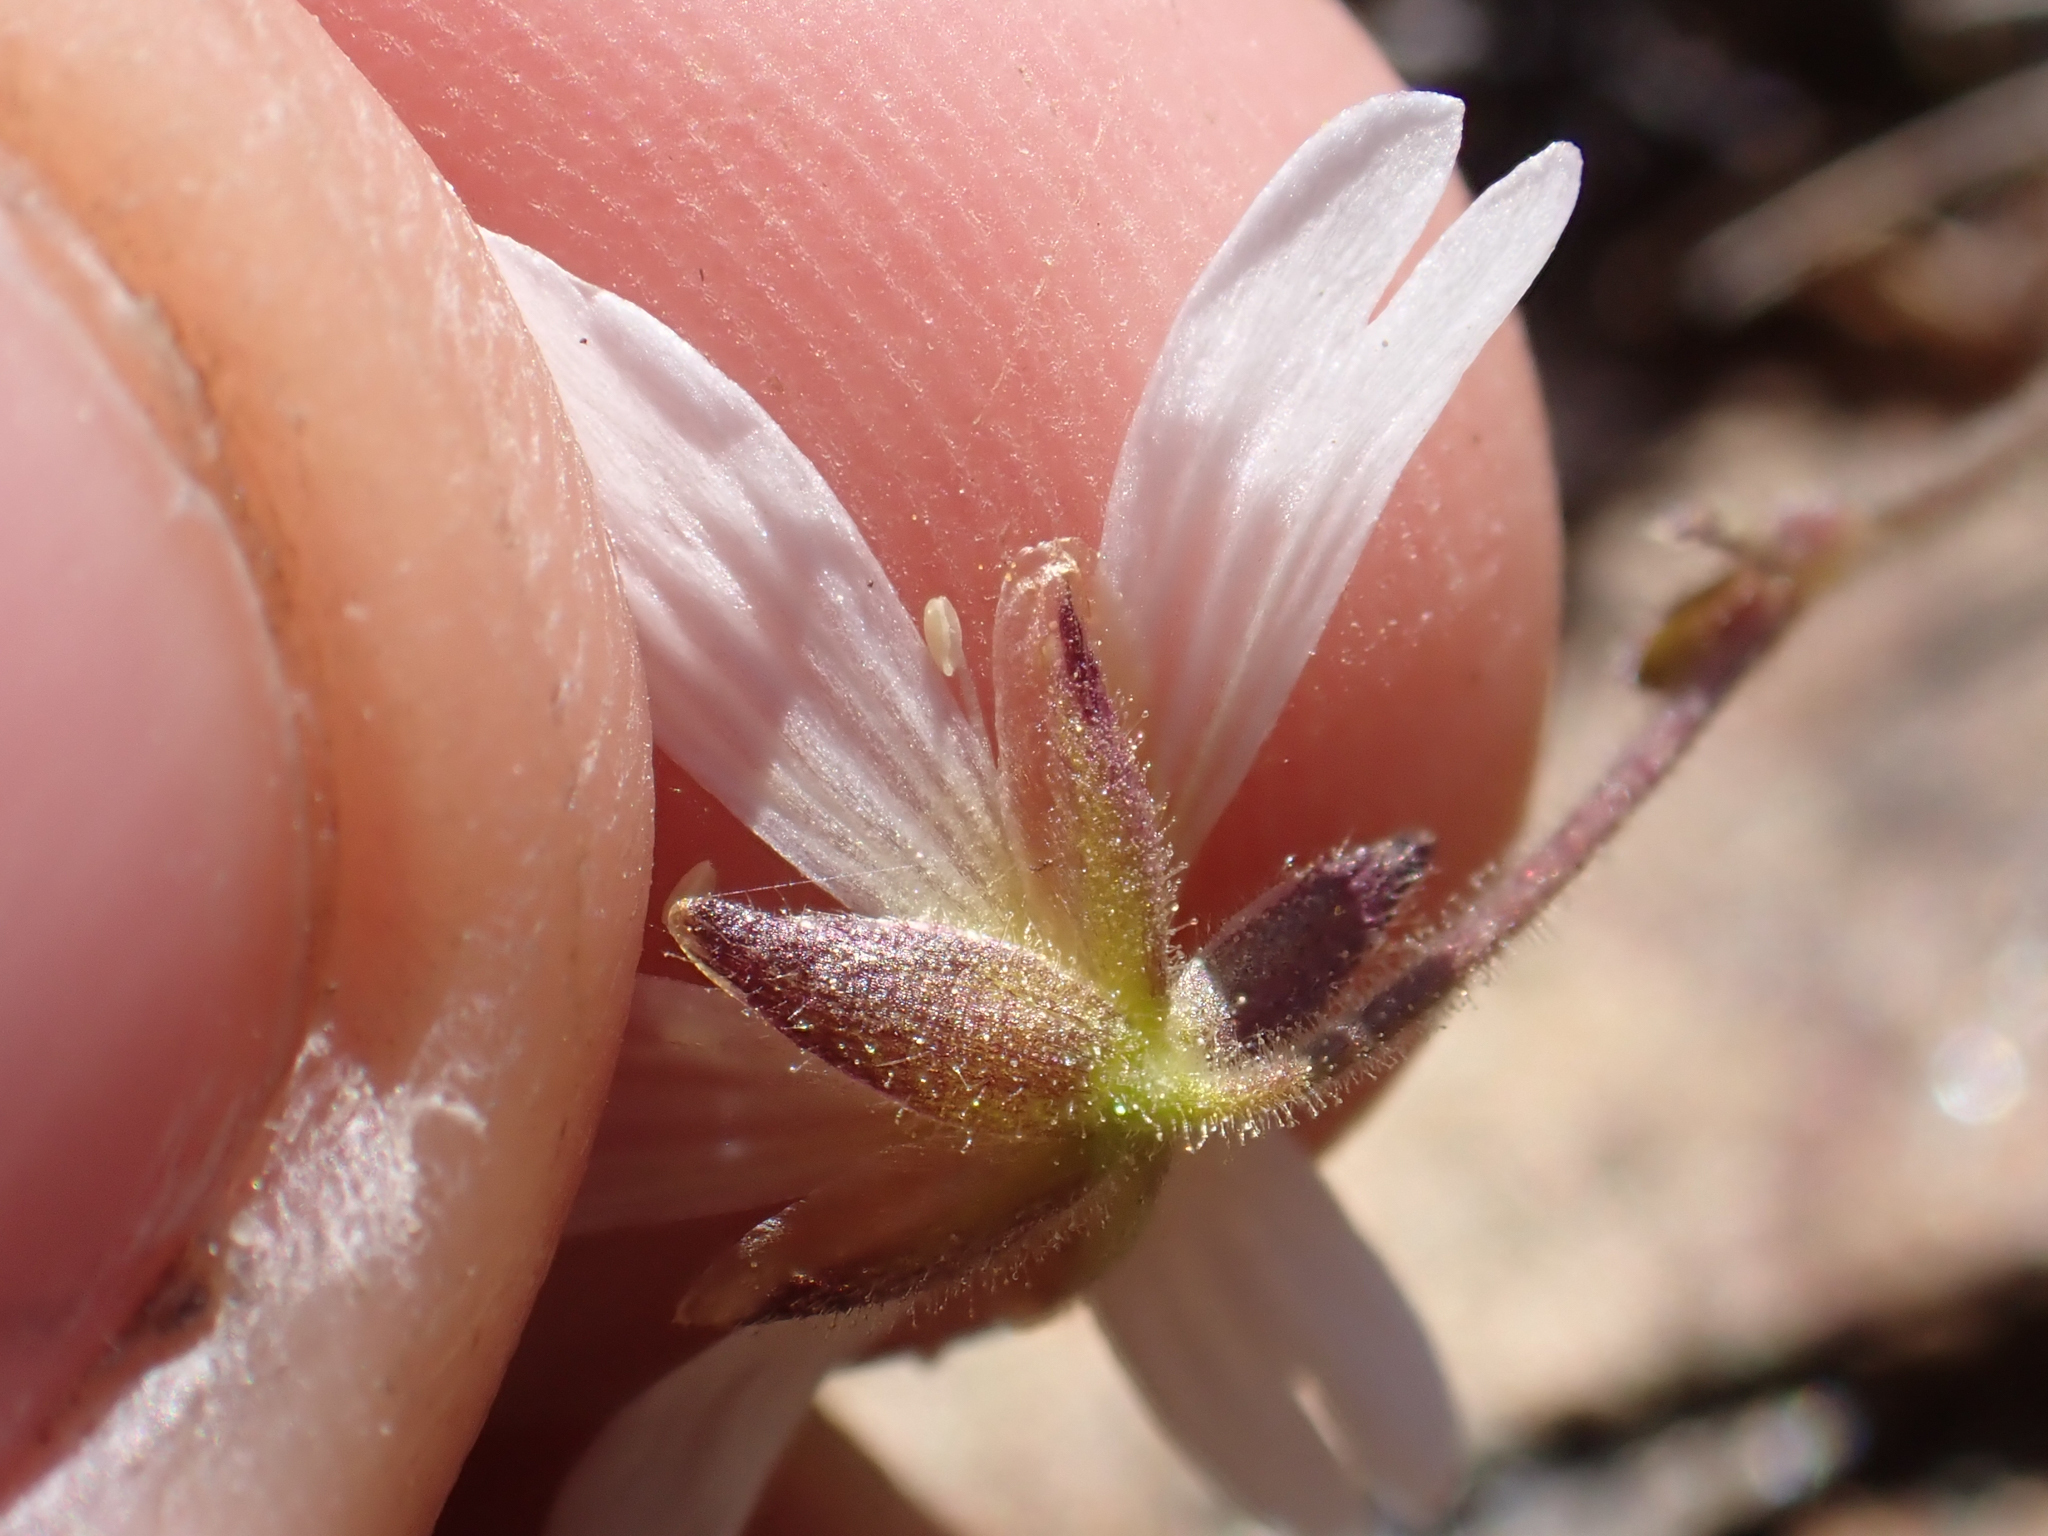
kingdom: Plantae
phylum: Tracheophyta
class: Magnoliopsida
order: Caryophyllales
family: Caryophyllaceae
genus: Cerastium
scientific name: Cerastium beeringianum
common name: Bering mouse-ear chickweed
